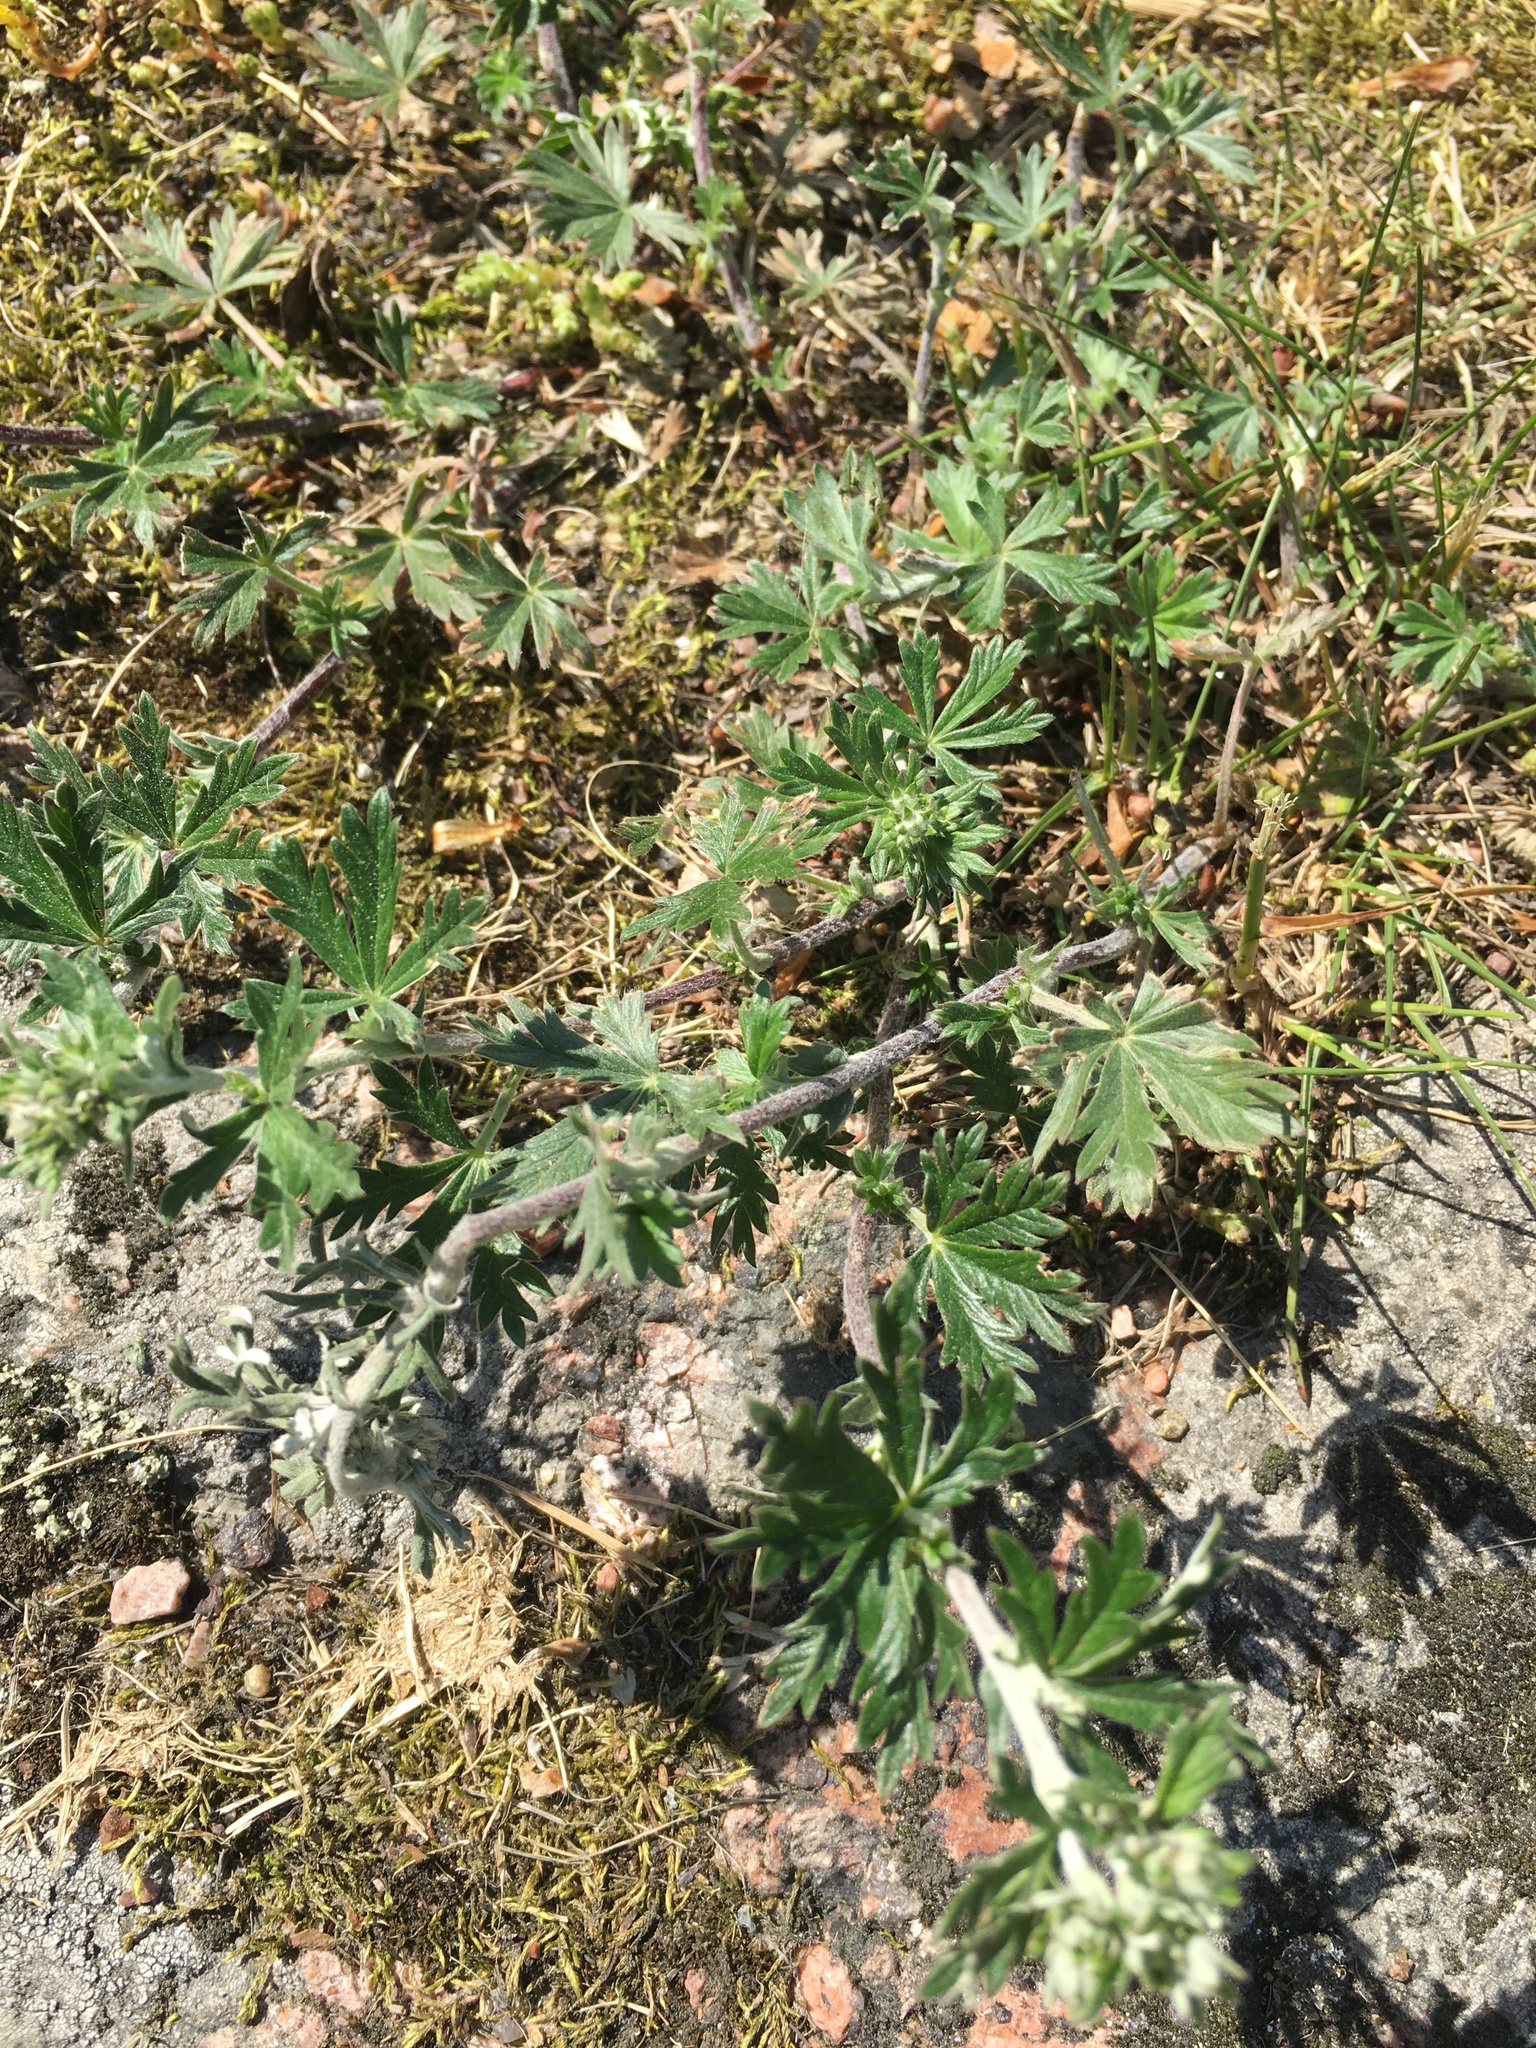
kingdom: Plantae
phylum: Tracheophyta
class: Magnoliopsida
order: Rosales
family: Rosaceae
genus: Potentilla
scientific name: Potentilla argentea
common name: Hoary cinquefoil
